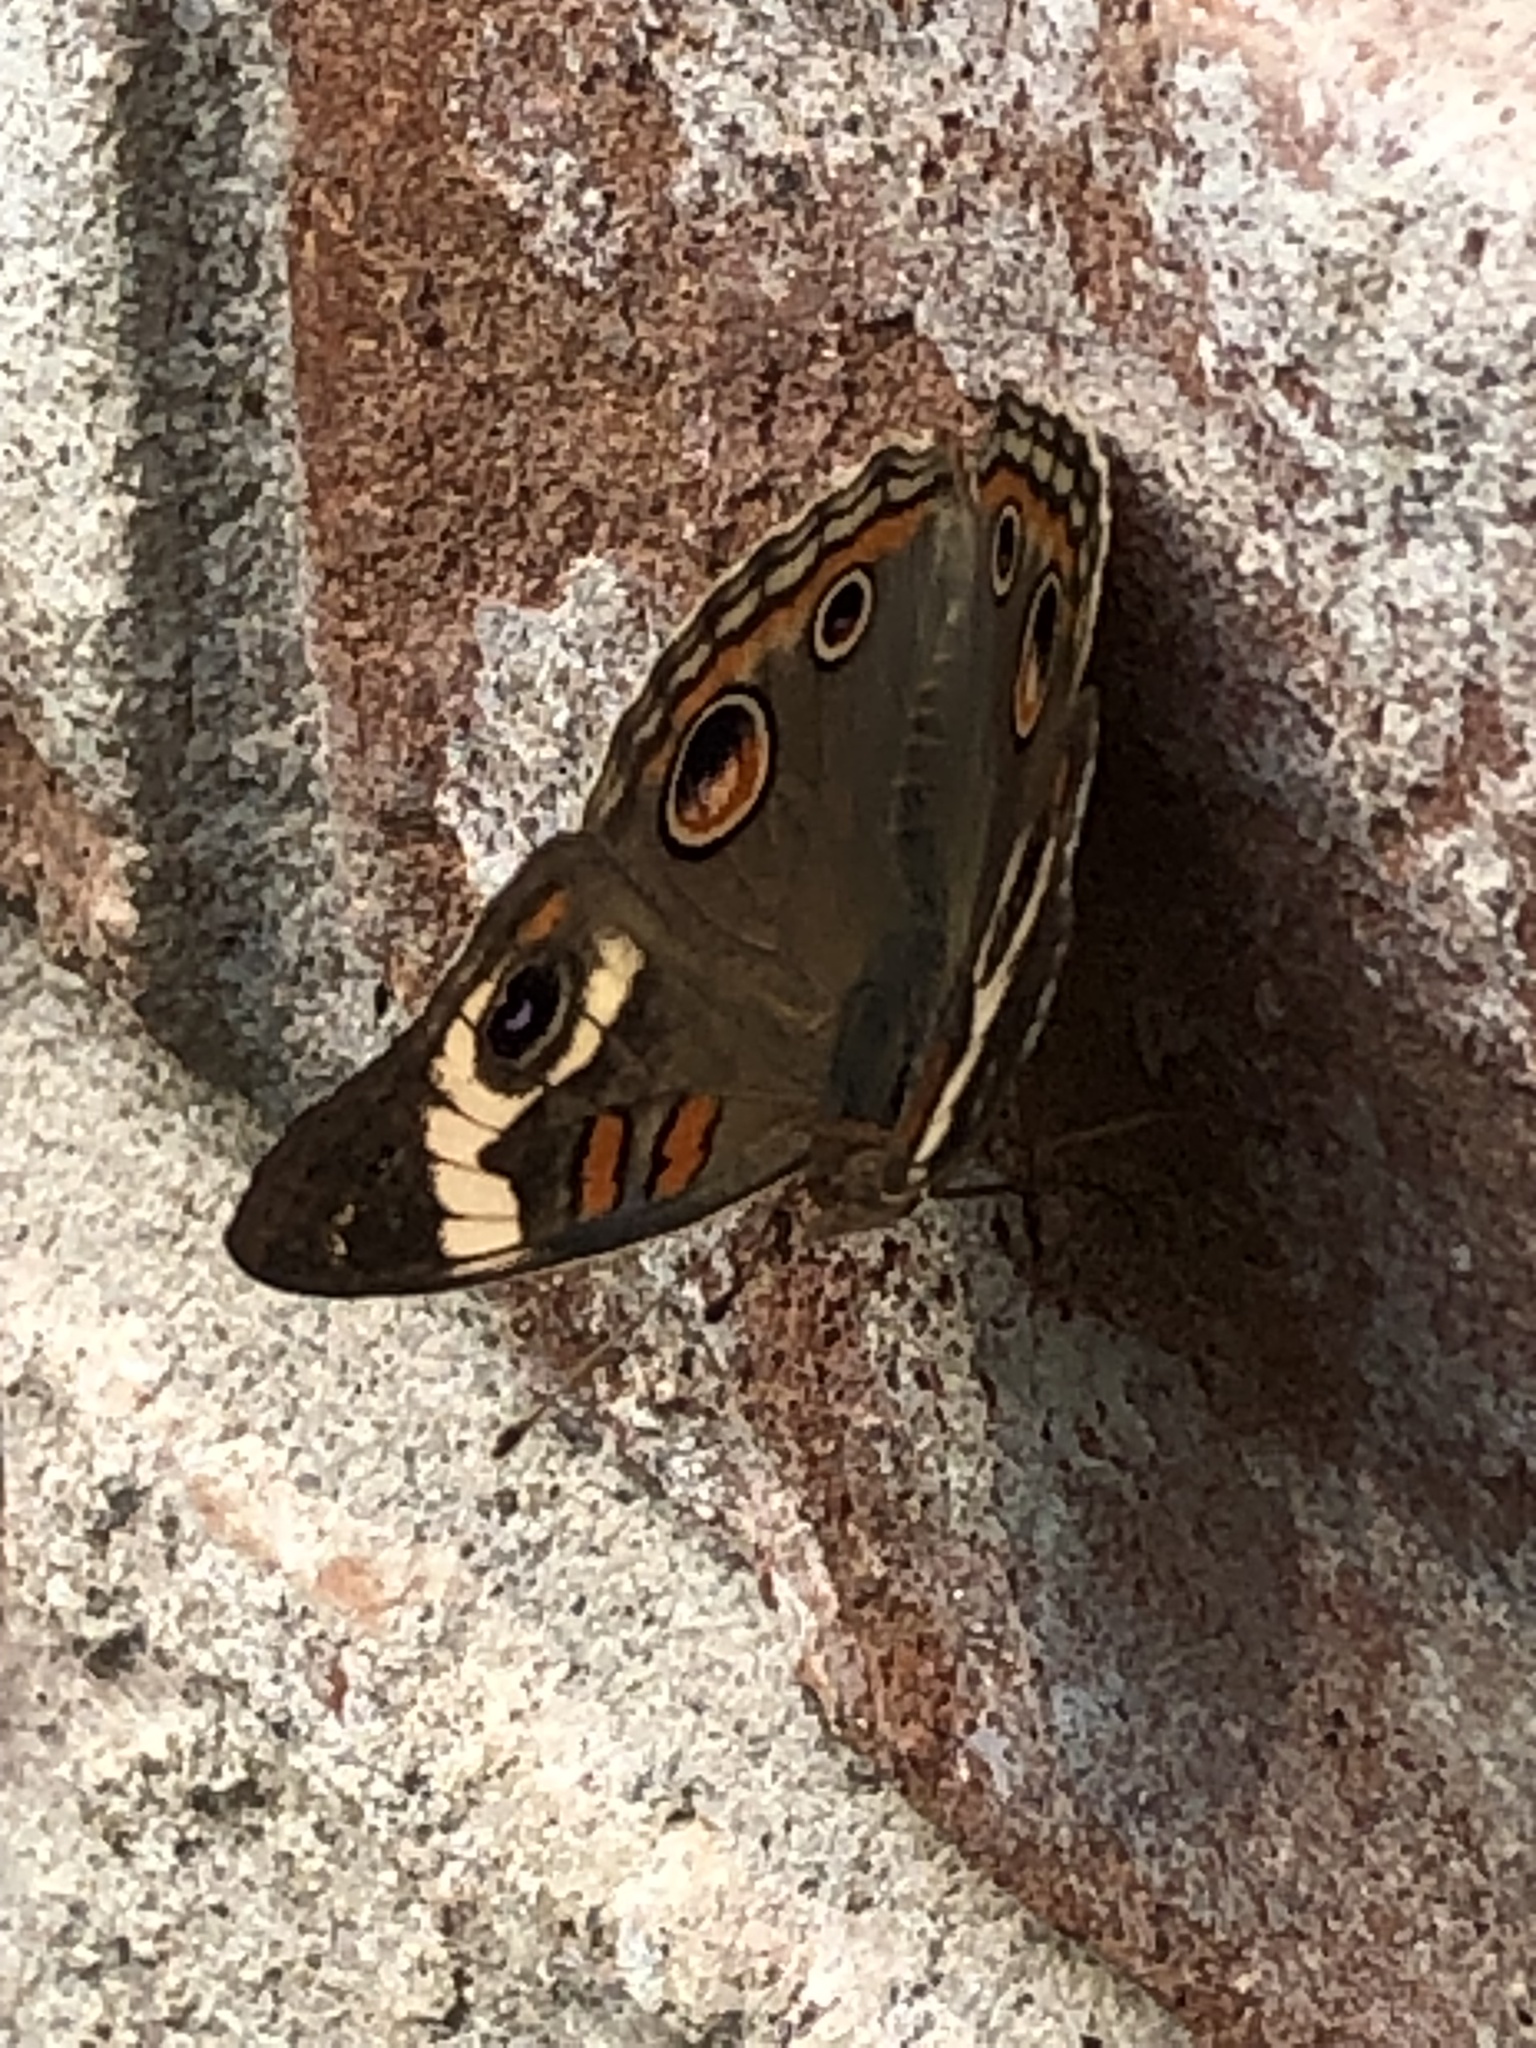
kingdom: Animalia
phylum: Arthropoda
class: Insecta
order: Lepidoptera
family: Nymphalidae
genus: Junonia
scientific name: Junonia coenia
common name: Common buckeye
